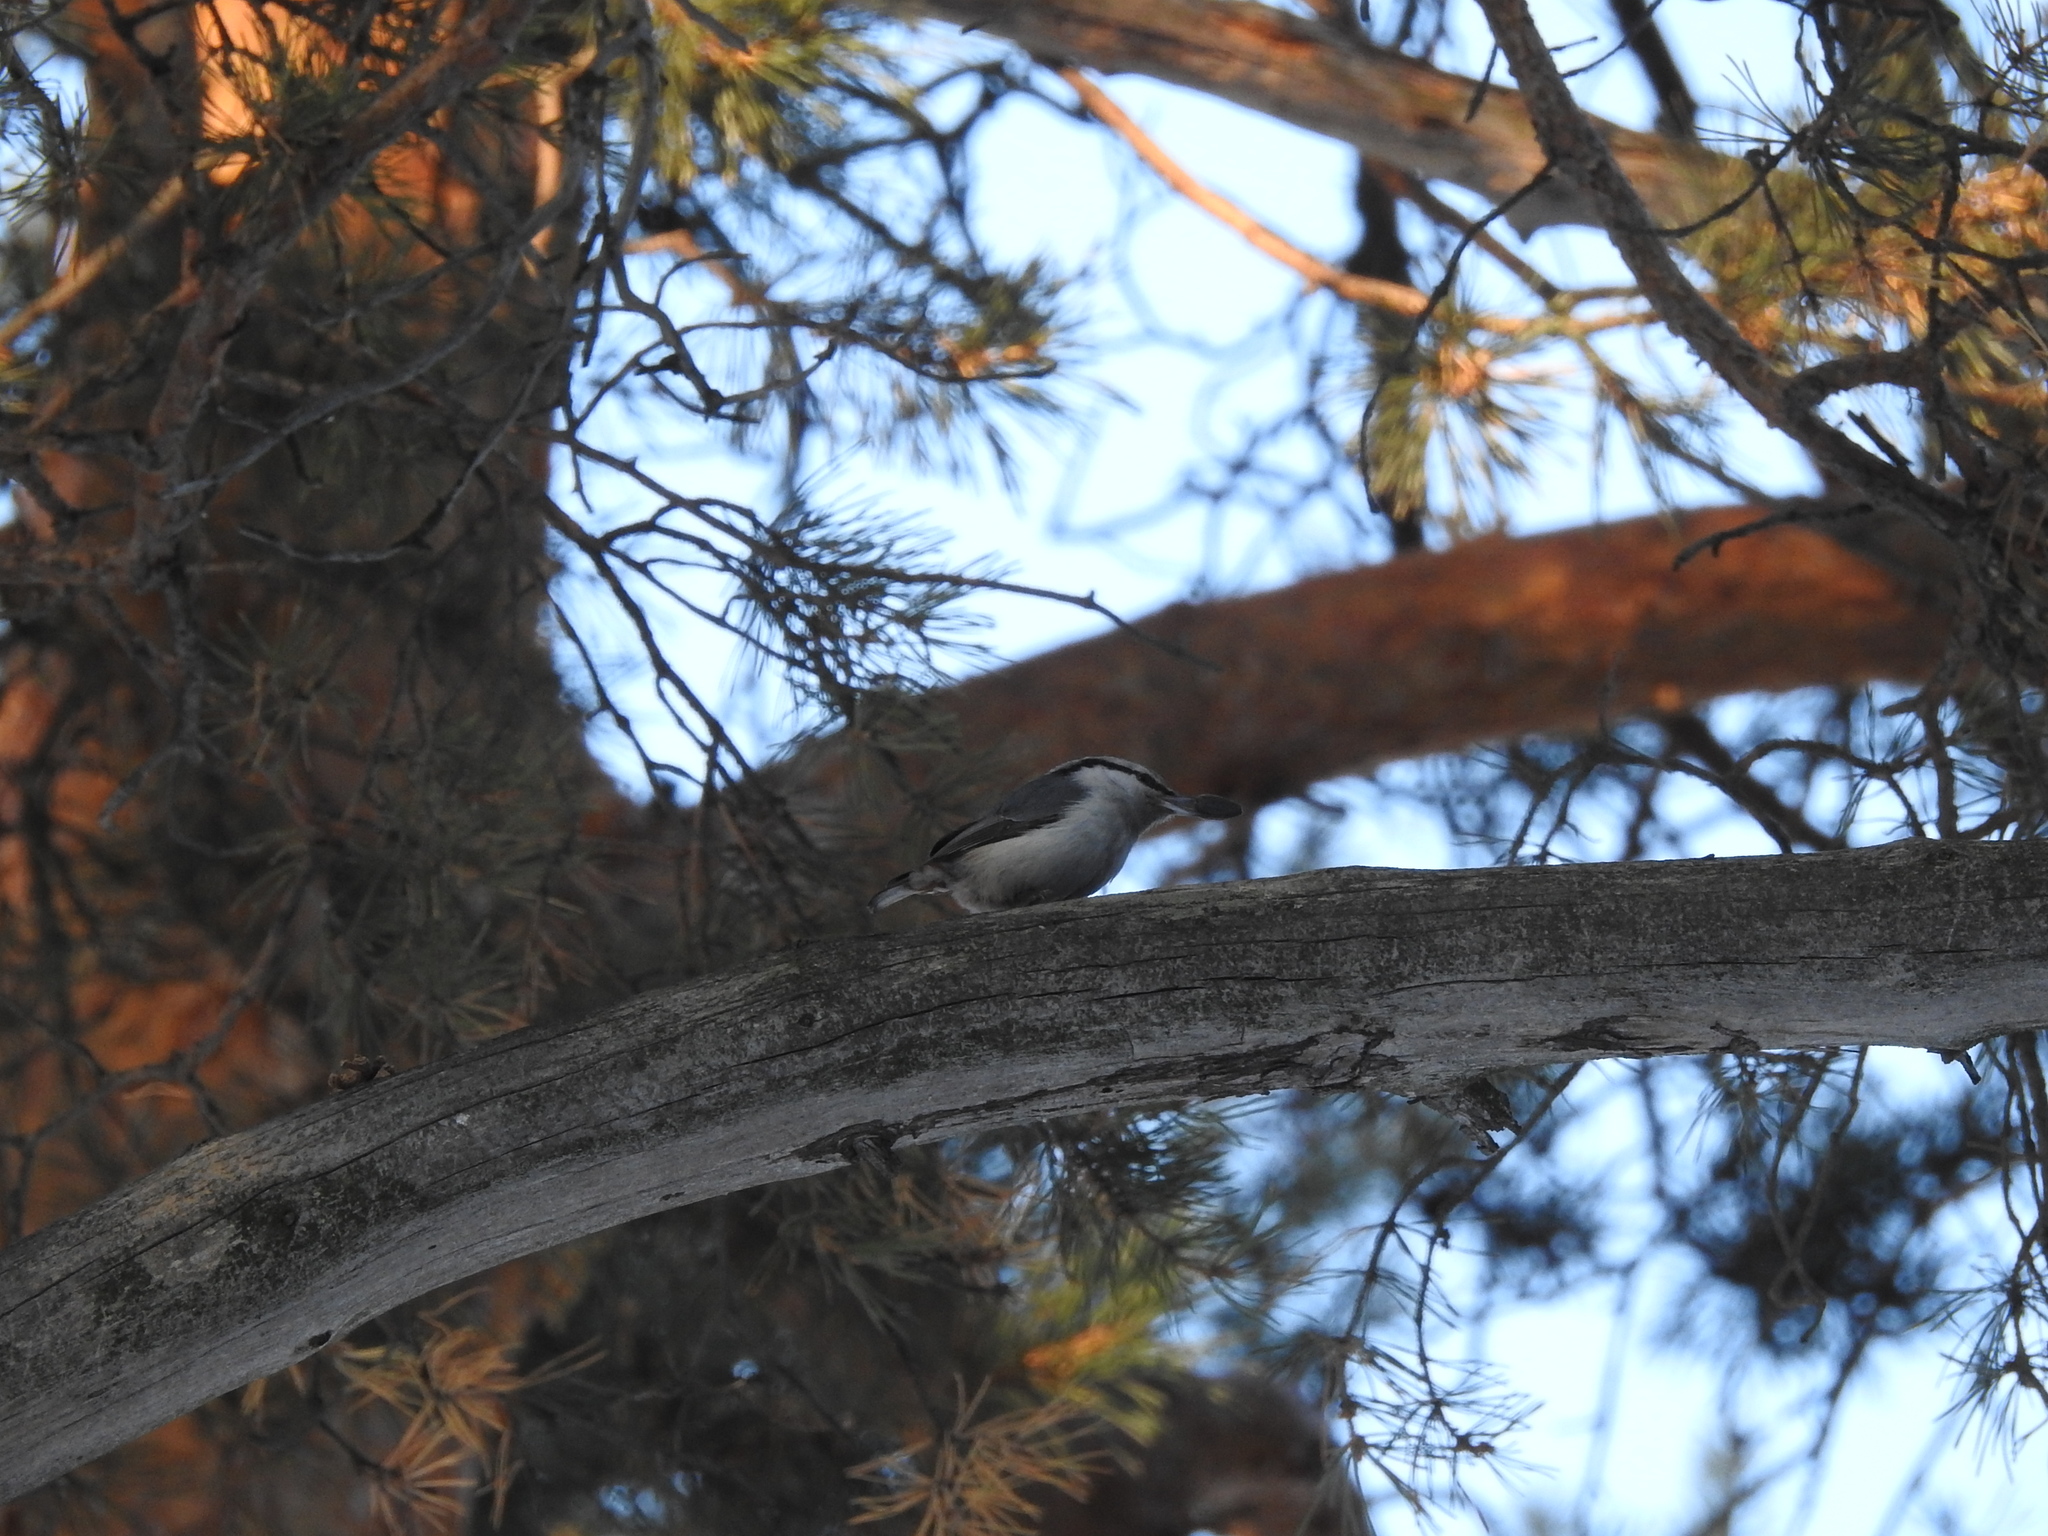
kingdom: Animalia
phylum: Chordata
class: Aves
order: Passeriformes
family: Sittidae
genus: Sitta
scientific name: Sitta europaea
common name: Eurasian nuthatch
